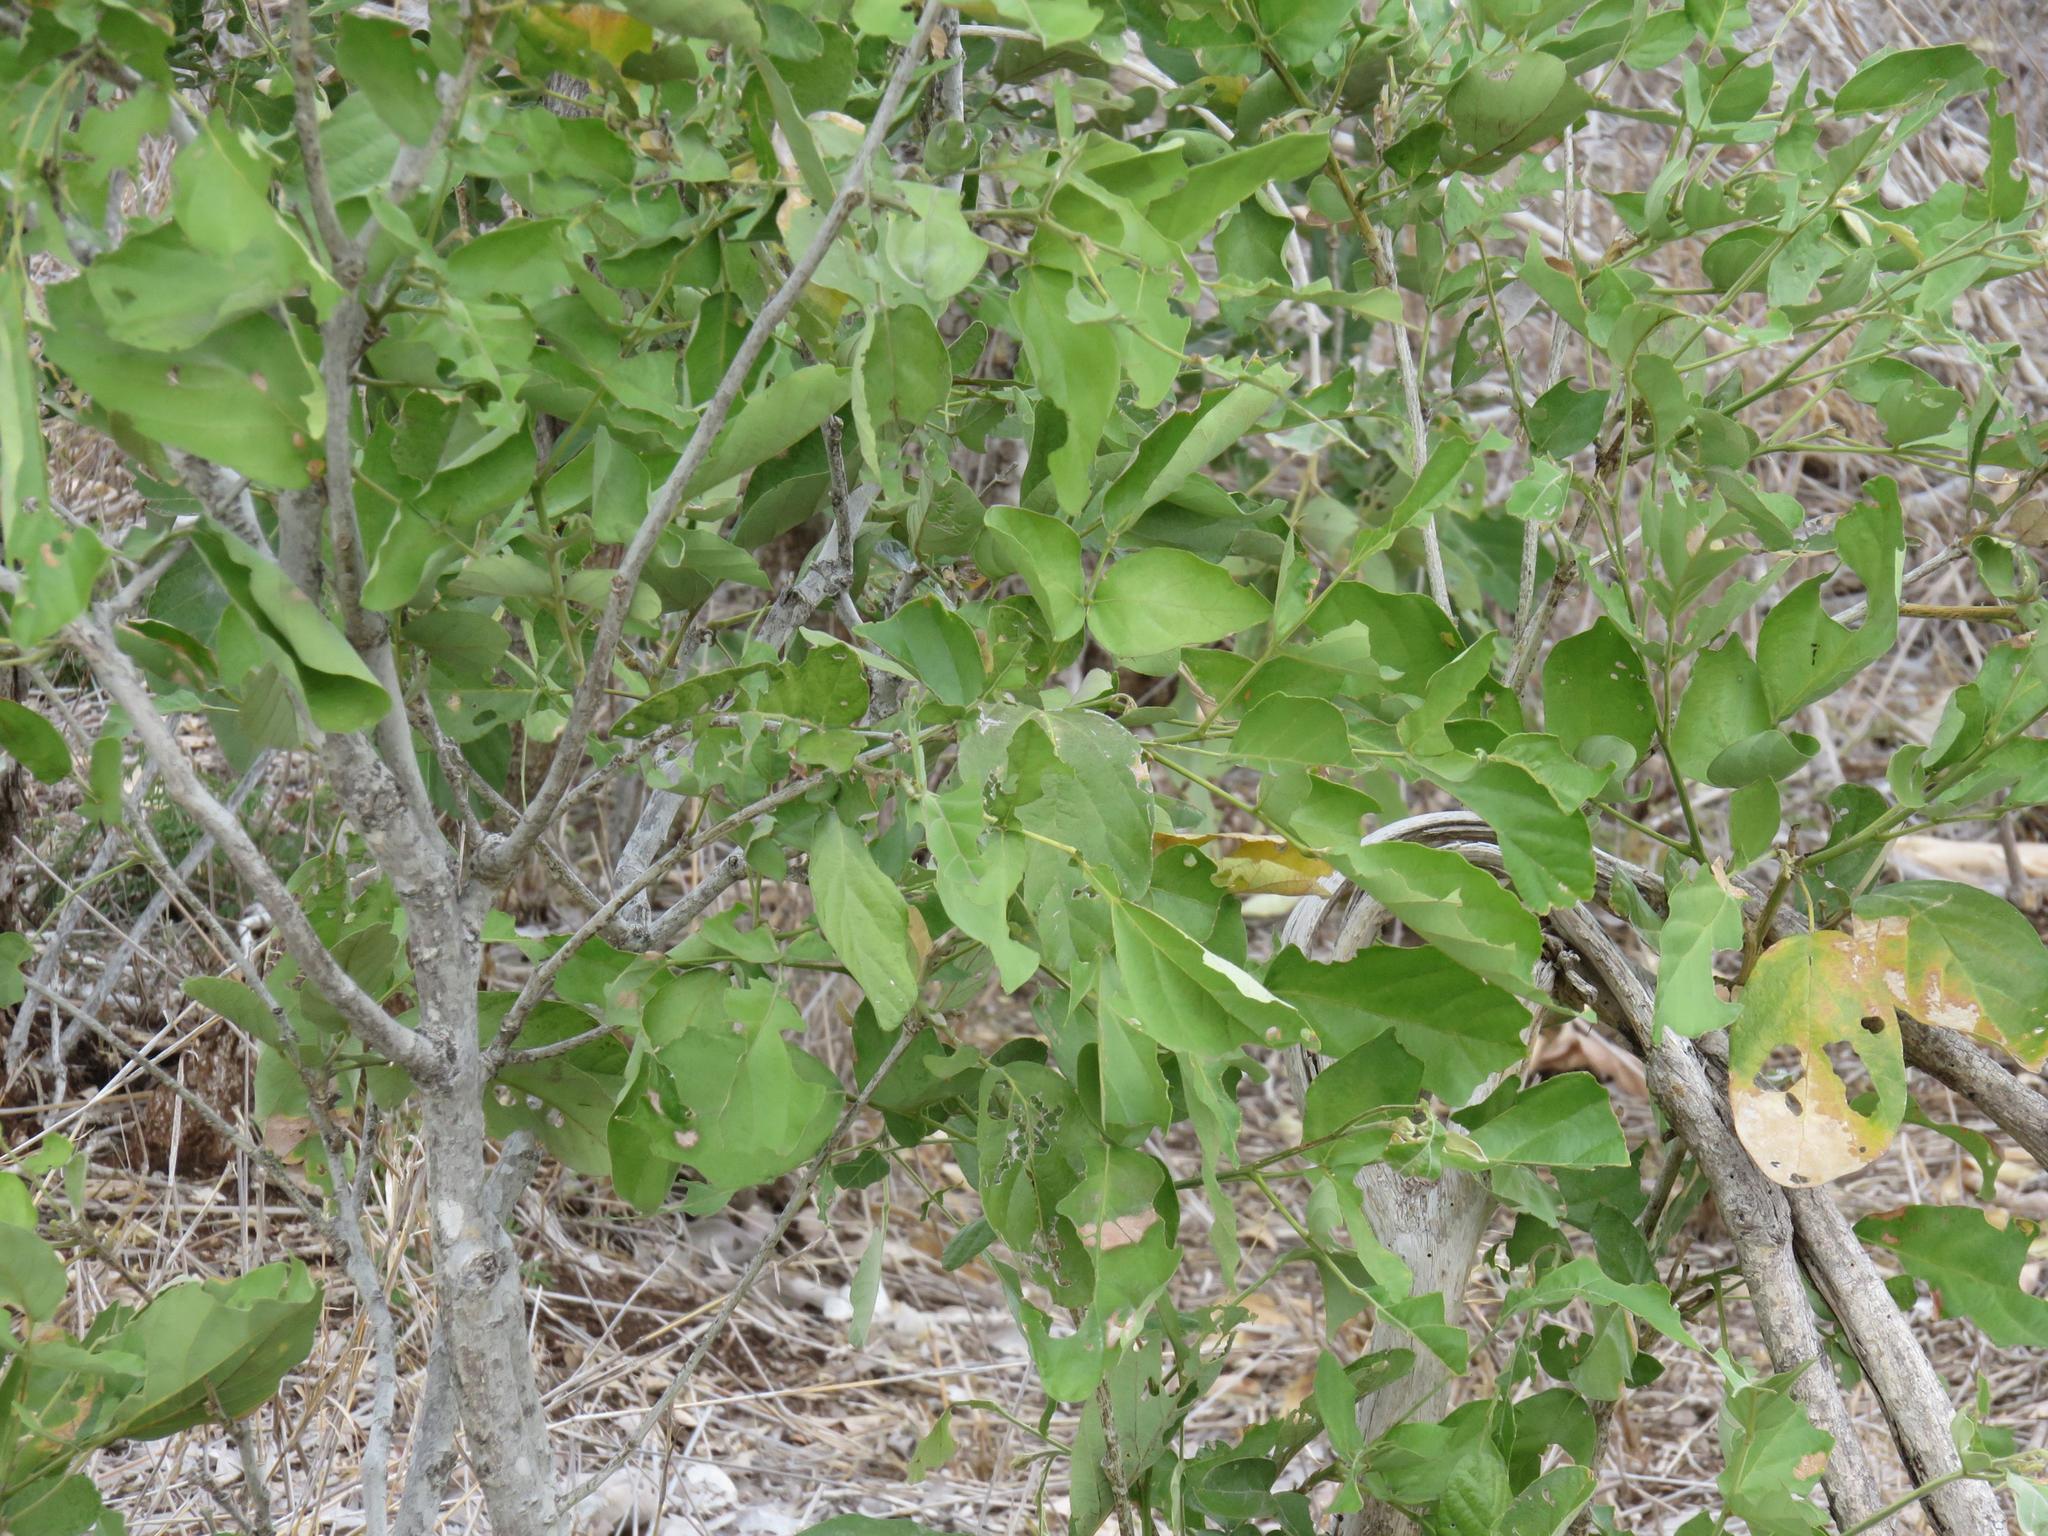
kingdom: Plantae
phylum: Tracheophyta
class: Magnoliopsida
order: Fabales
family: Fabaceae
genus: Philenoptera
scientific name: Philenoptera violacea
